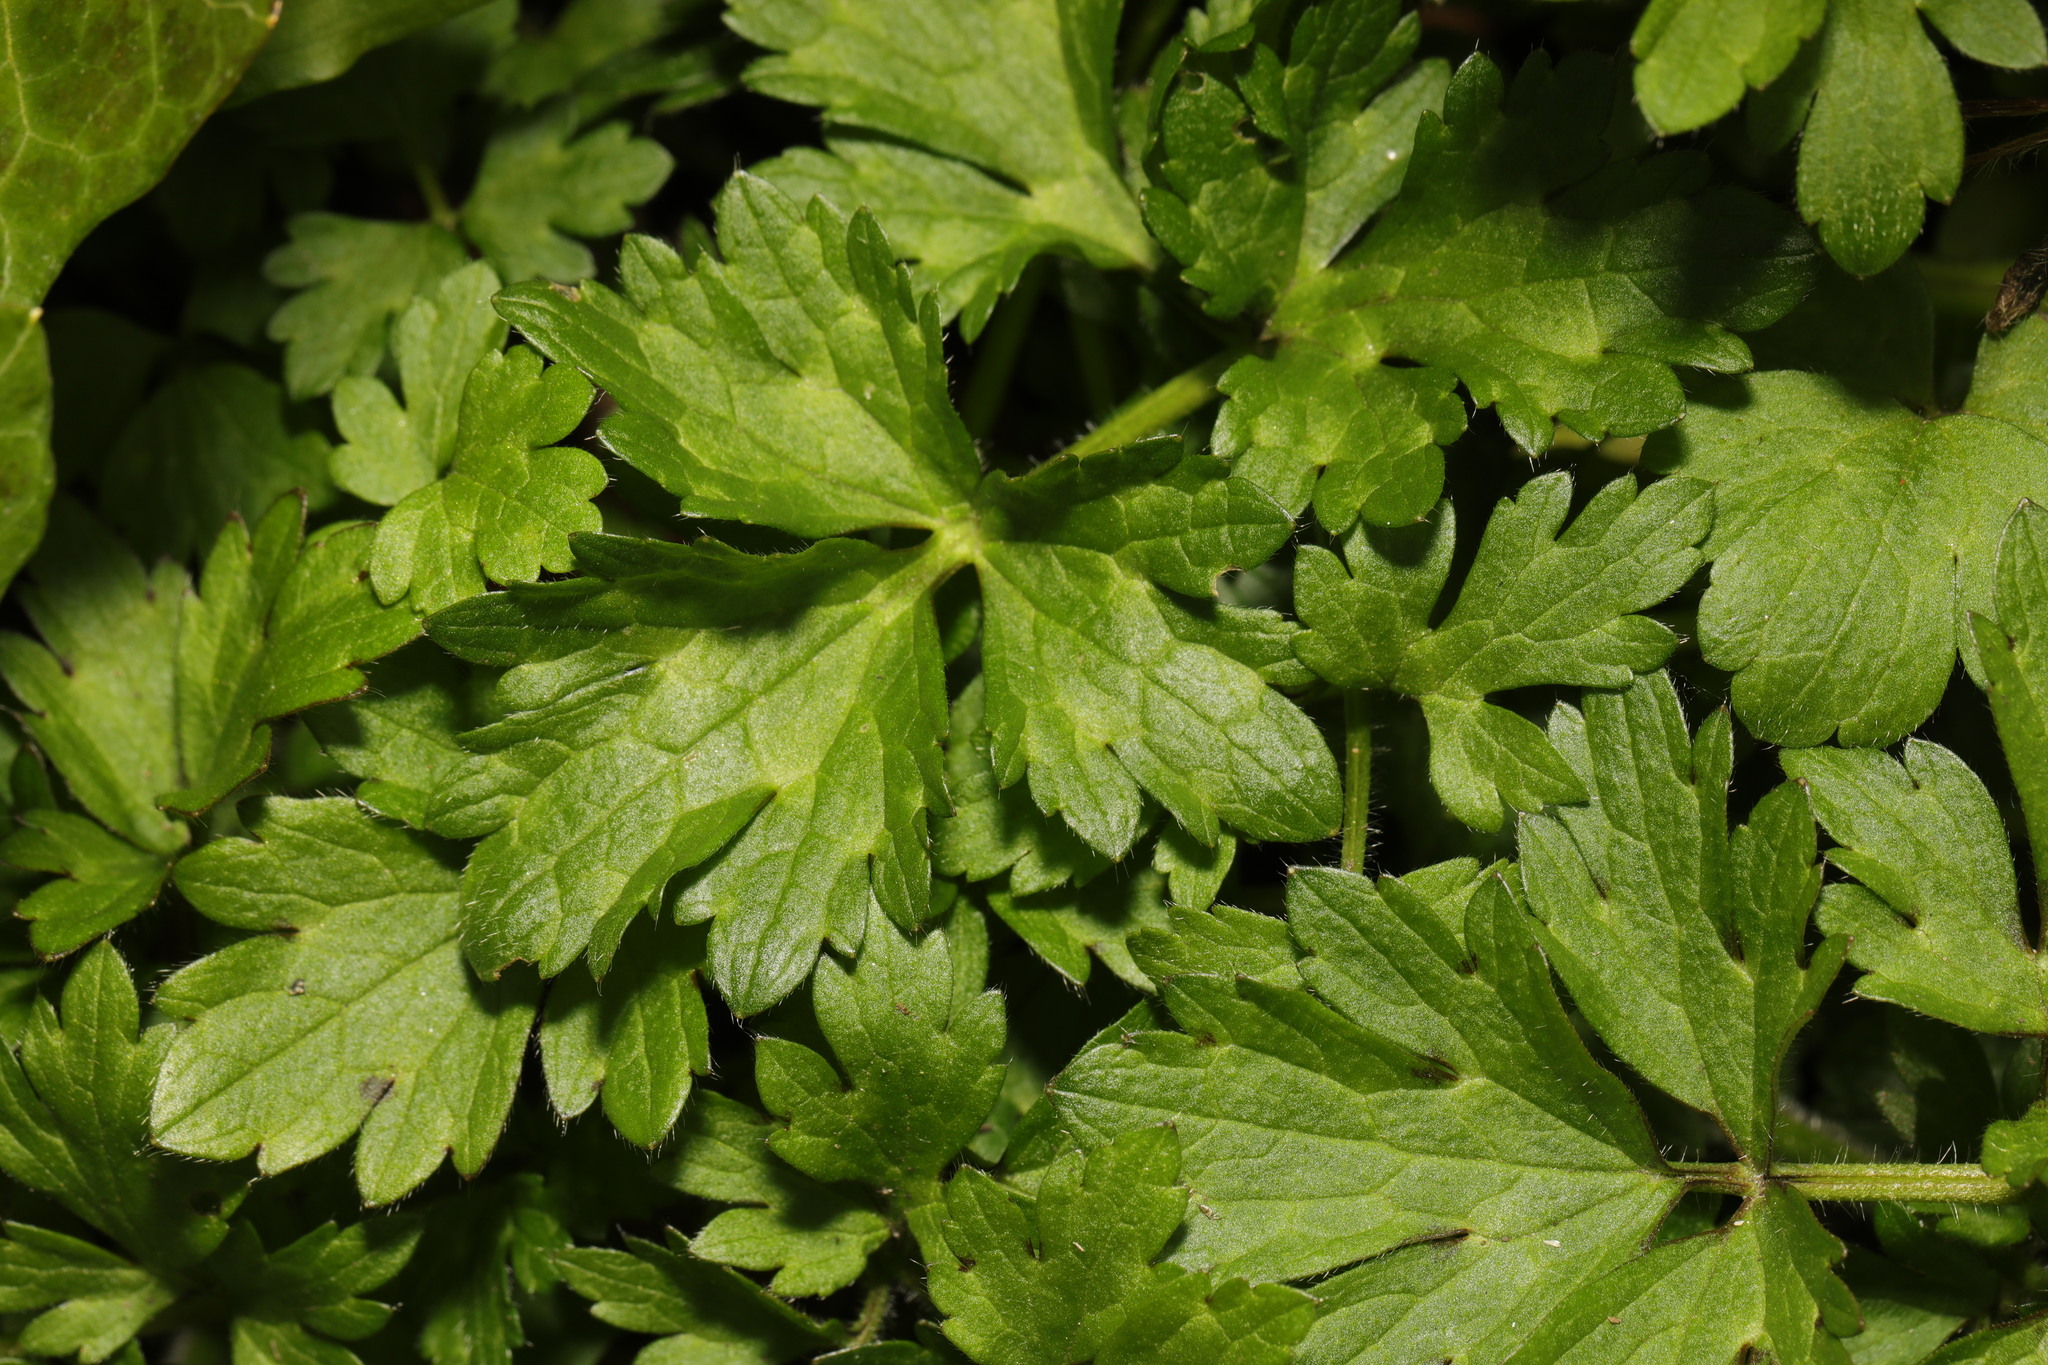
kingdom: Plantae
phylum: Tracheophyta
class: Magnoliopsida
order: Ranunculales
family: Ranunculaceae
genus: Ranunculus
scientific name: Ranunculus repens
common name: Creeping buttercup
